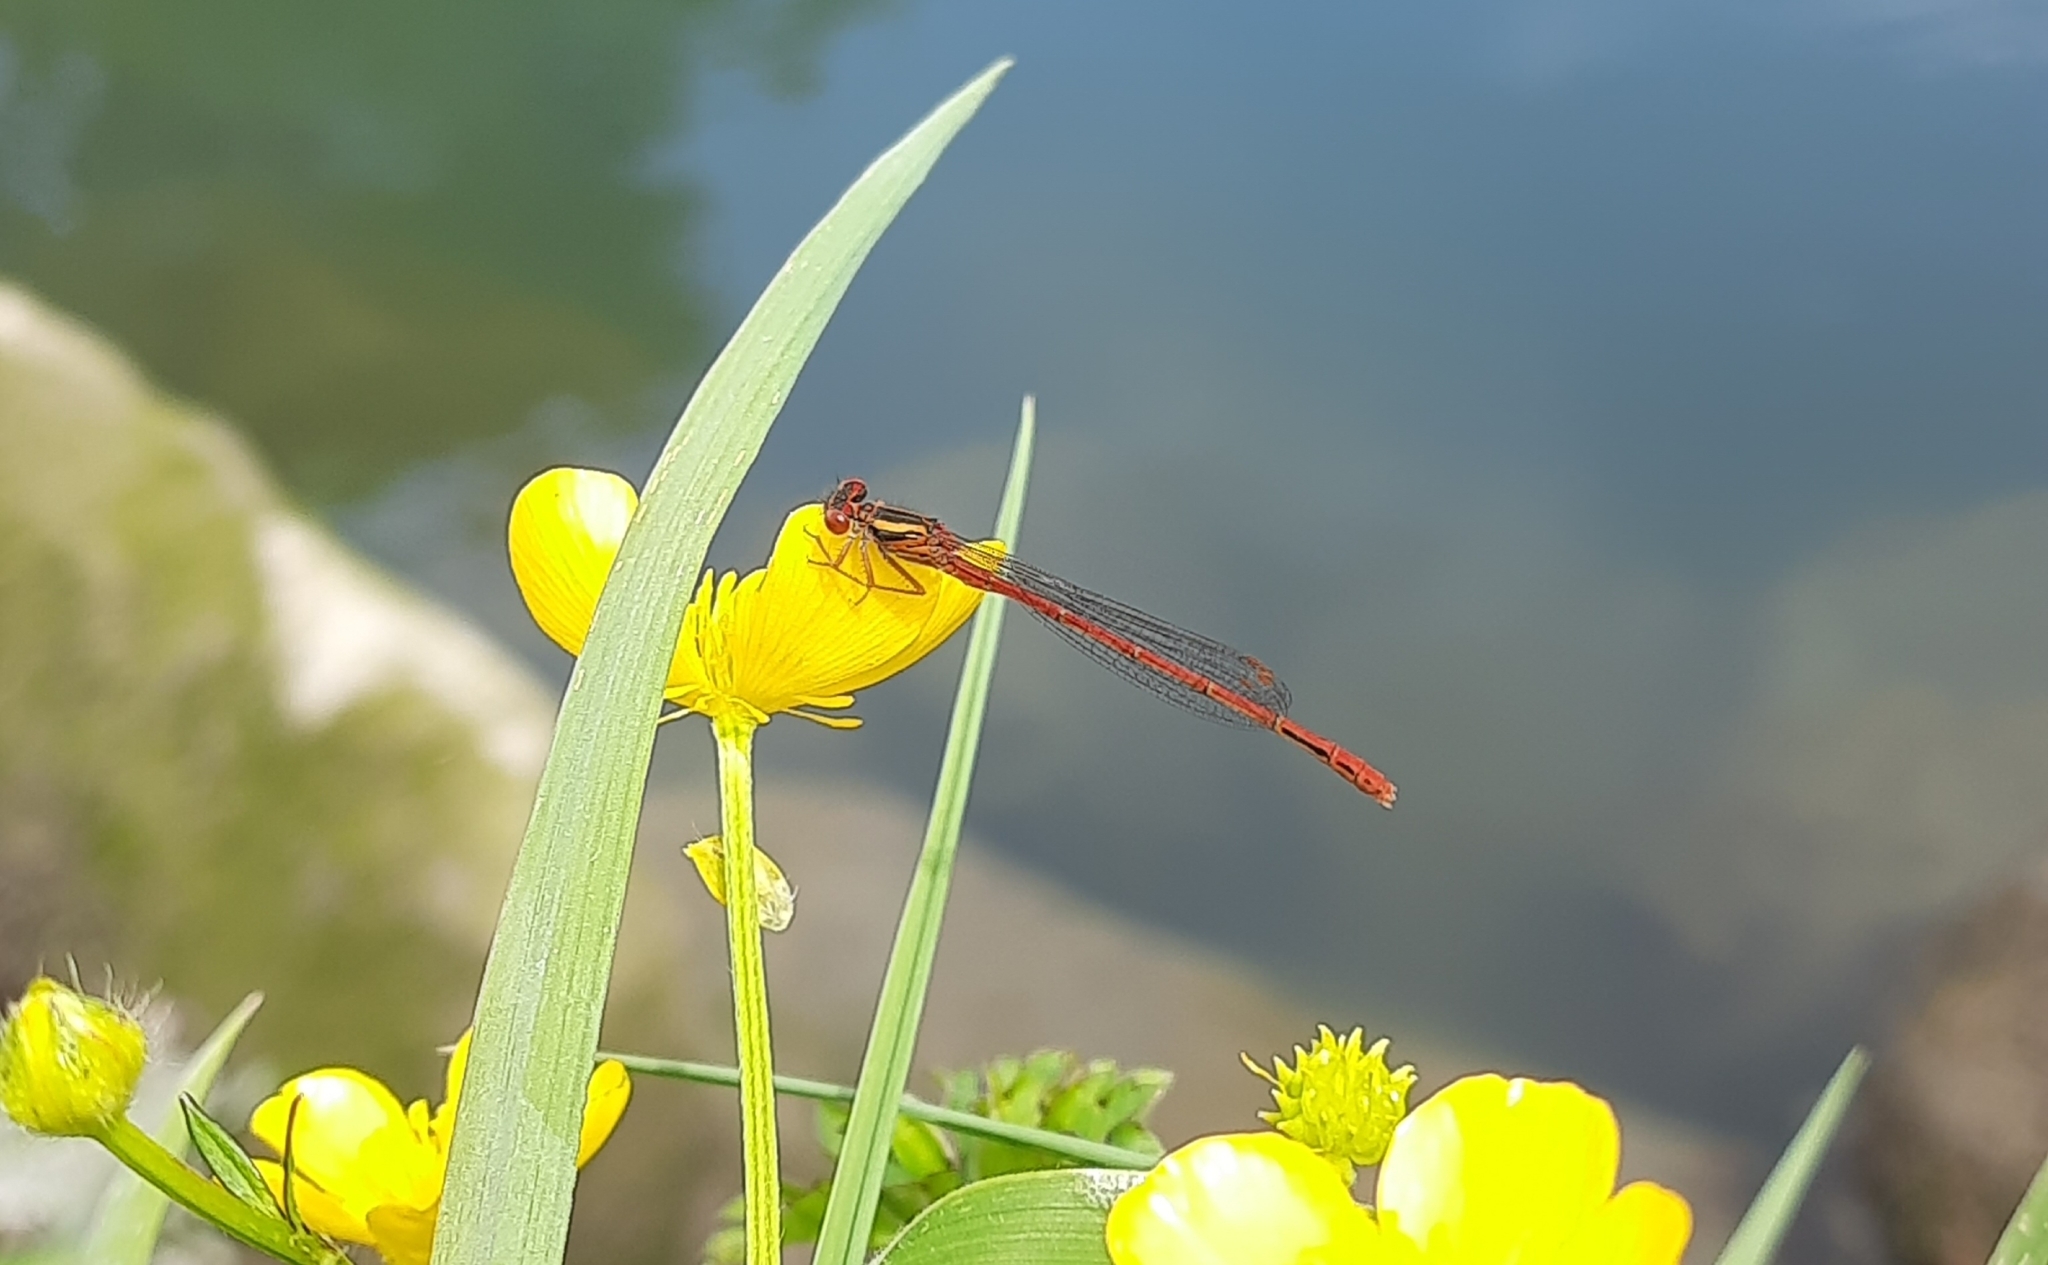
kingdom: Animalia
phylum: Arthropoda
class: Insecta
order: Odonata
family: Coenagrionidae
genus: Xanthocnemis
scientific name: Xanthocnemis zealandica
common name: Common redcoat damselfly
